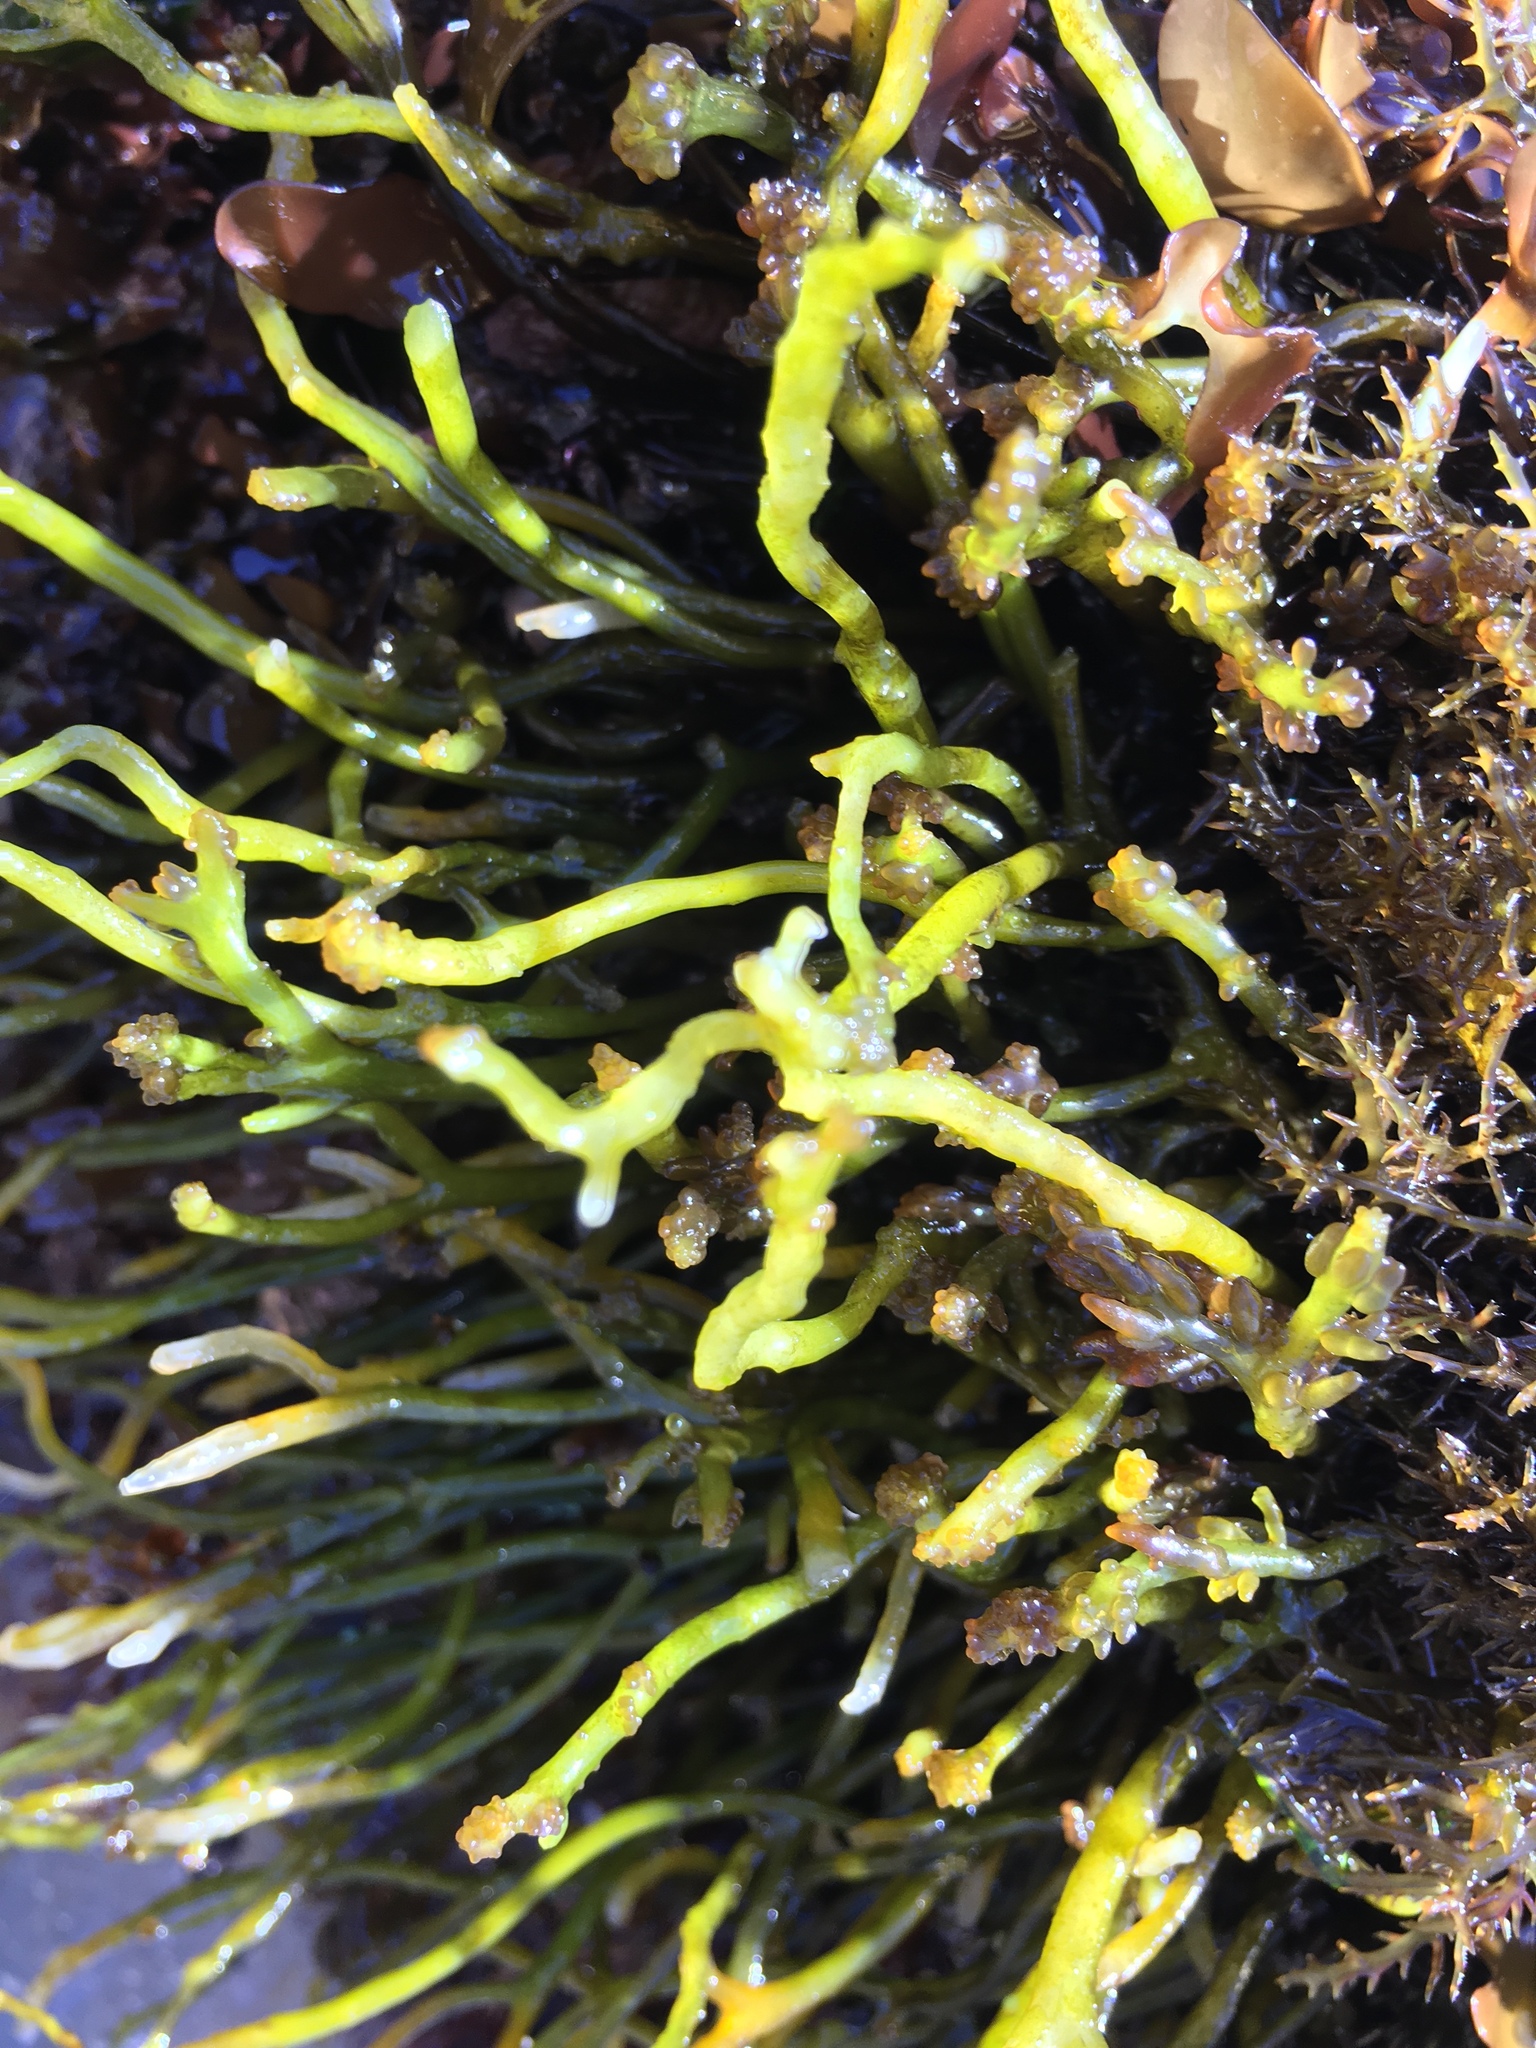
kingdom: Plantae
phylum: Rhodophyta
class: Florideophyceae
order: Rhodymeniales
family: Champiaceae
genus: Neogastroclonium
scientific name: Neogastroclonium subarticulatum
